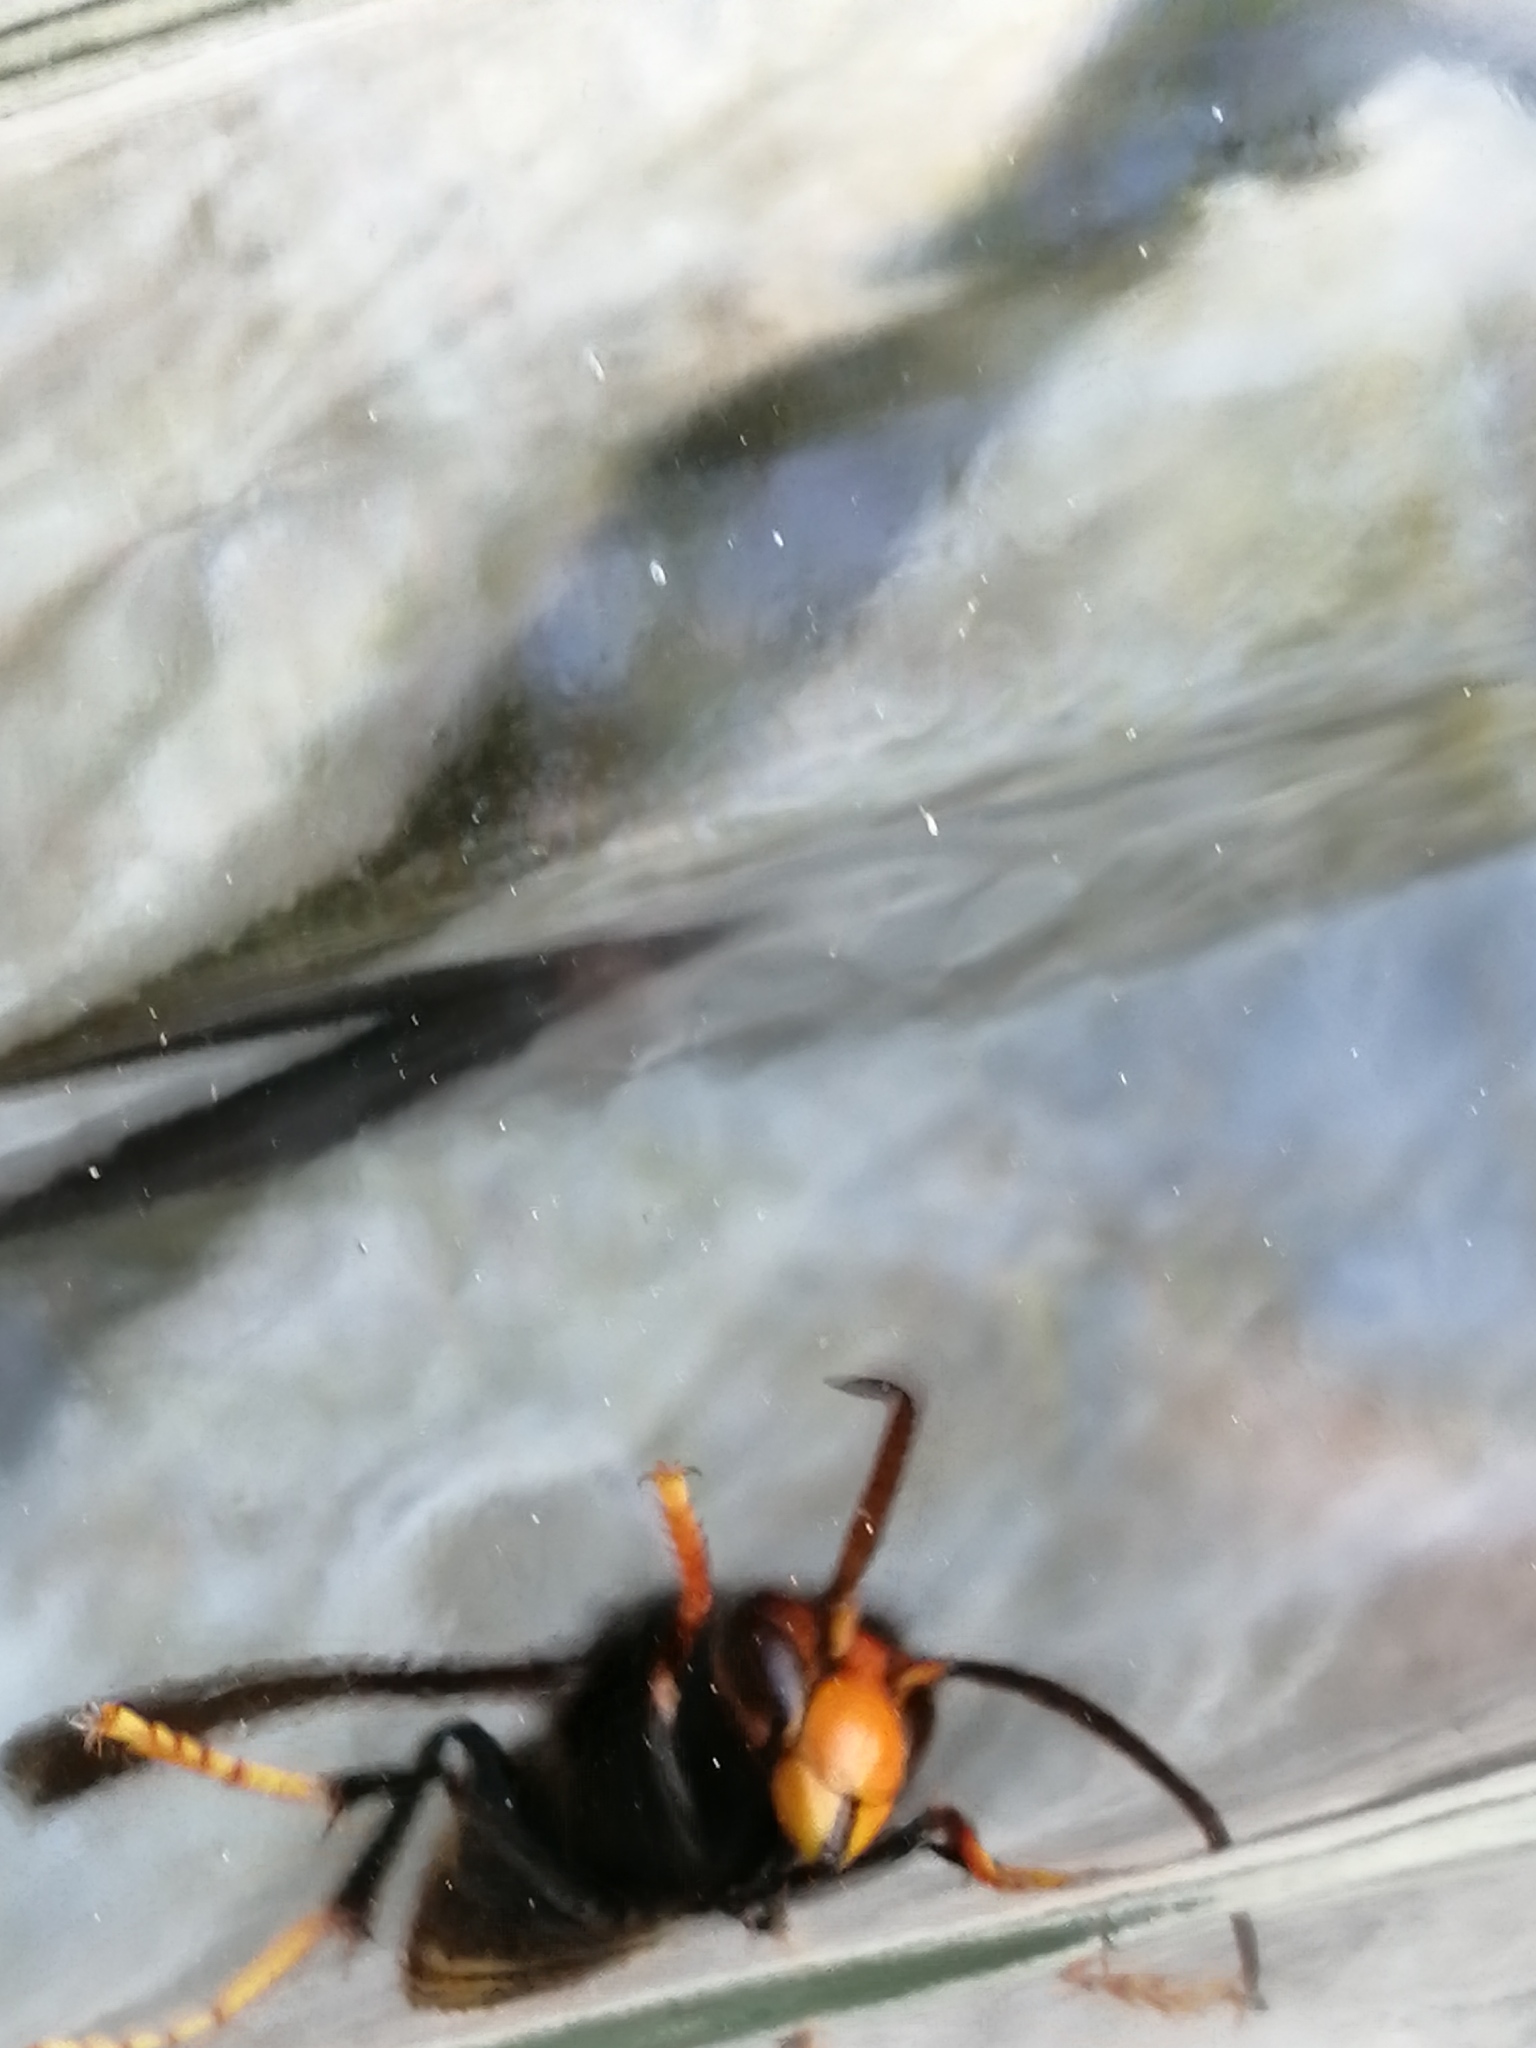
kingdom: Animalia
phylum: Arthropoda
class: Insecta
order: Hymenoptera
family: Vespidae
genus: Vespa
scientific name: Vespa velutina
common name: Asian hornet
